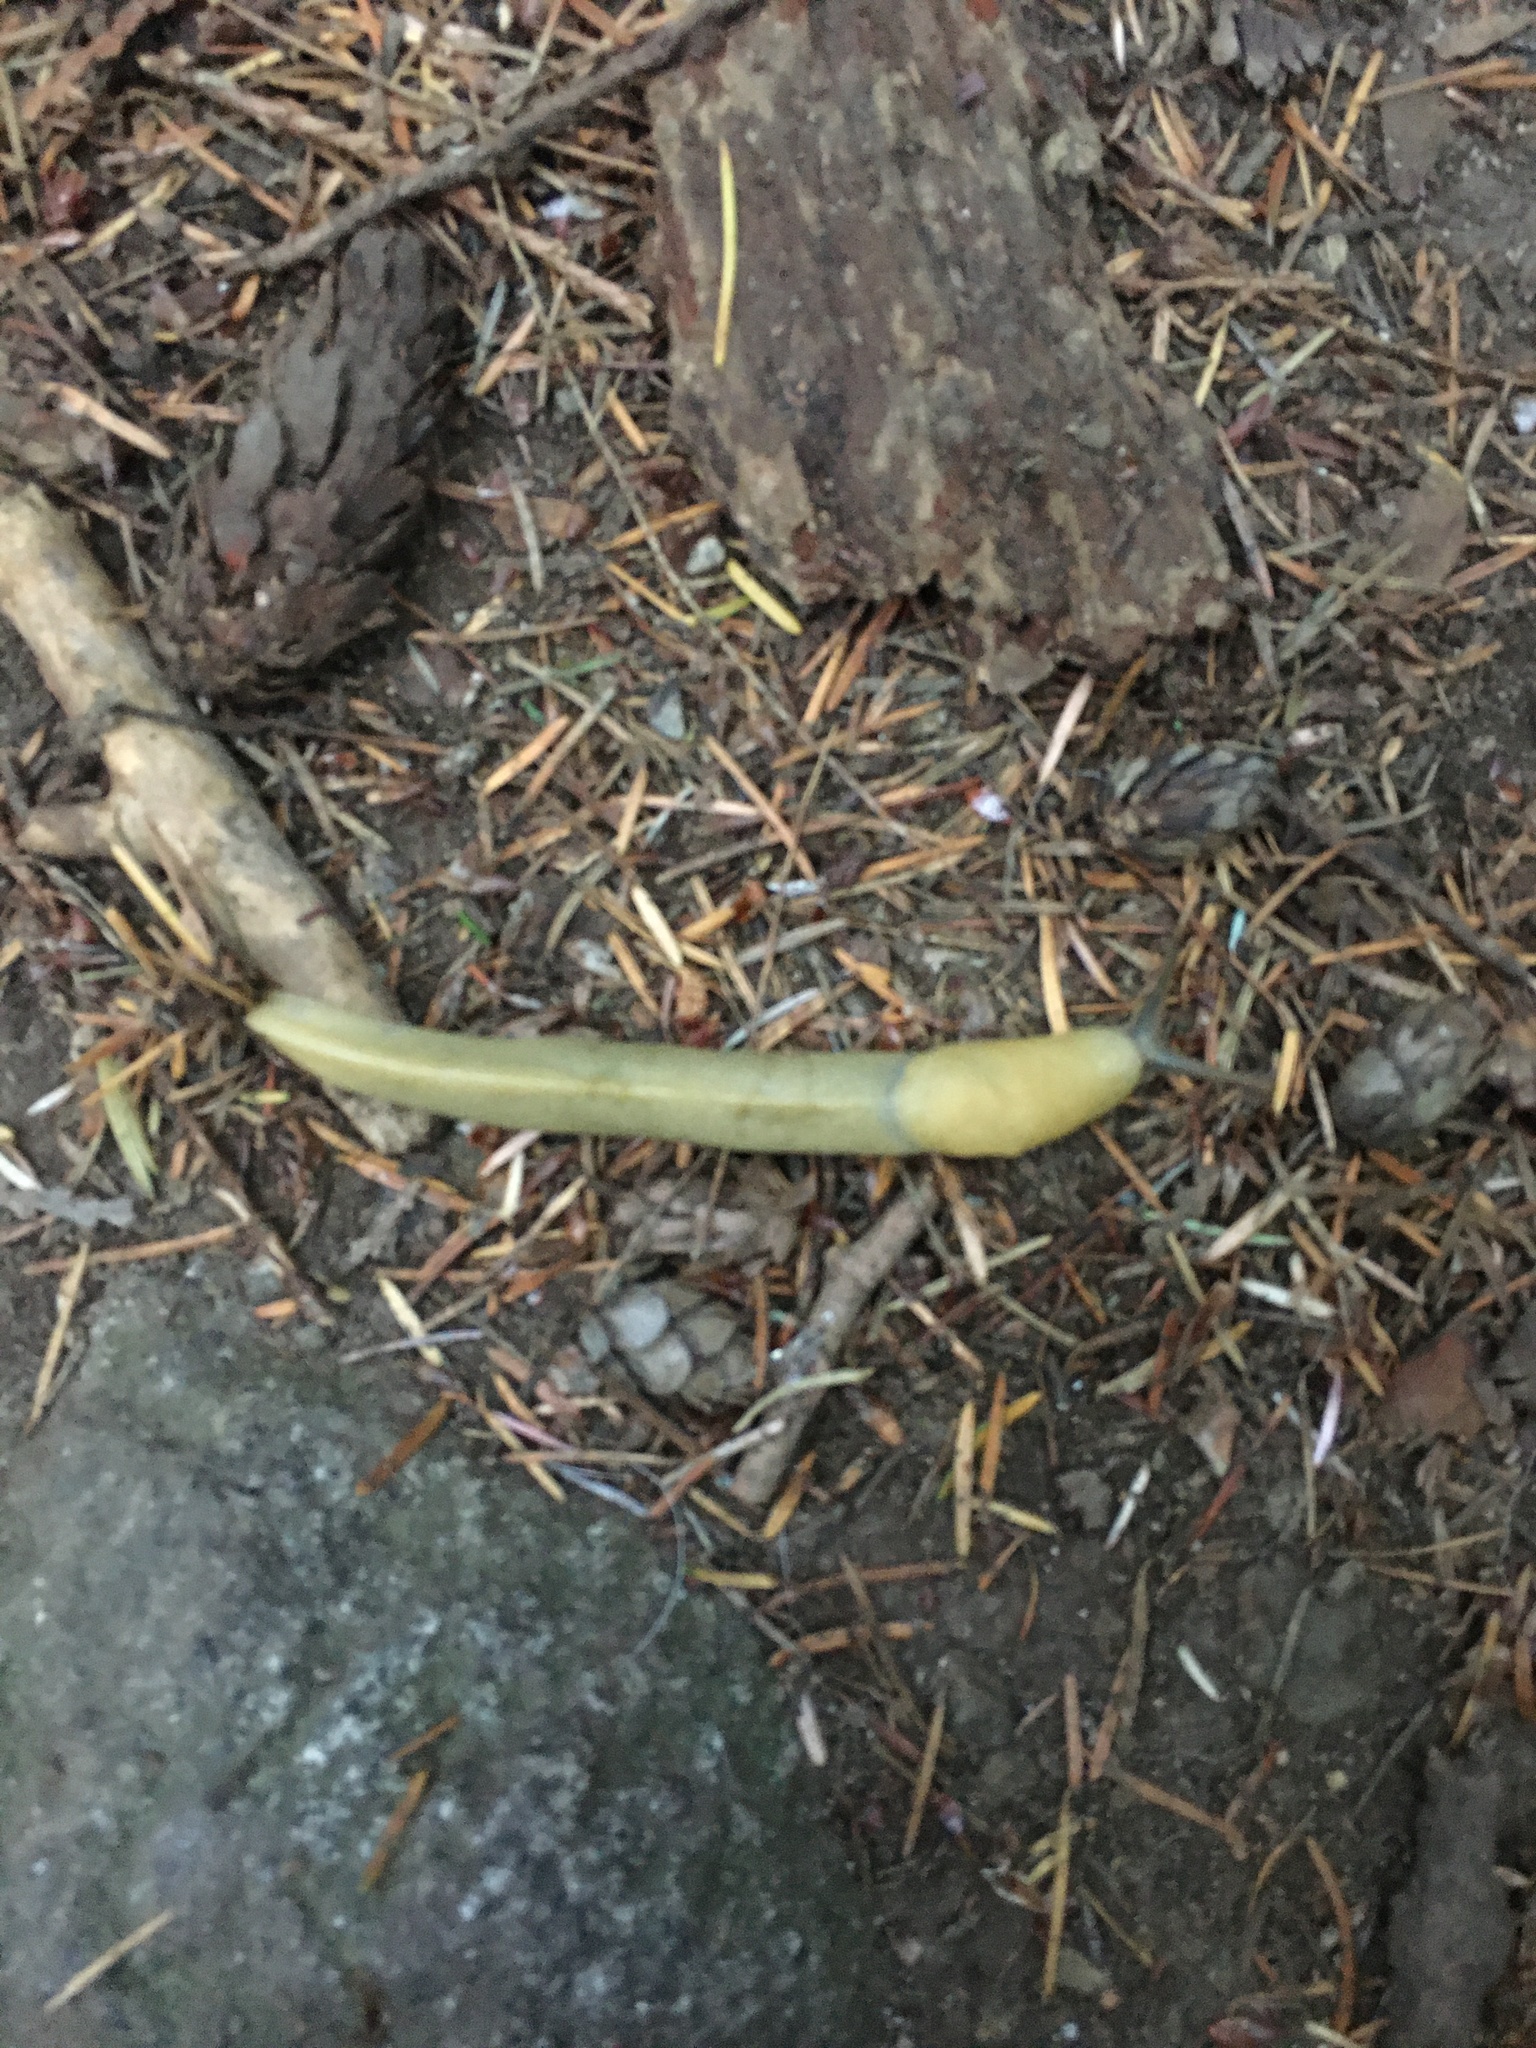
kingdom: Animalia
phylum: Mollusca
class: Gastropoda
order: Stylommatophora
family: Ariolimacidae
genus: Ariolimax
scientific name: Ariolimax columbianus
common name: Pacific banana slug
